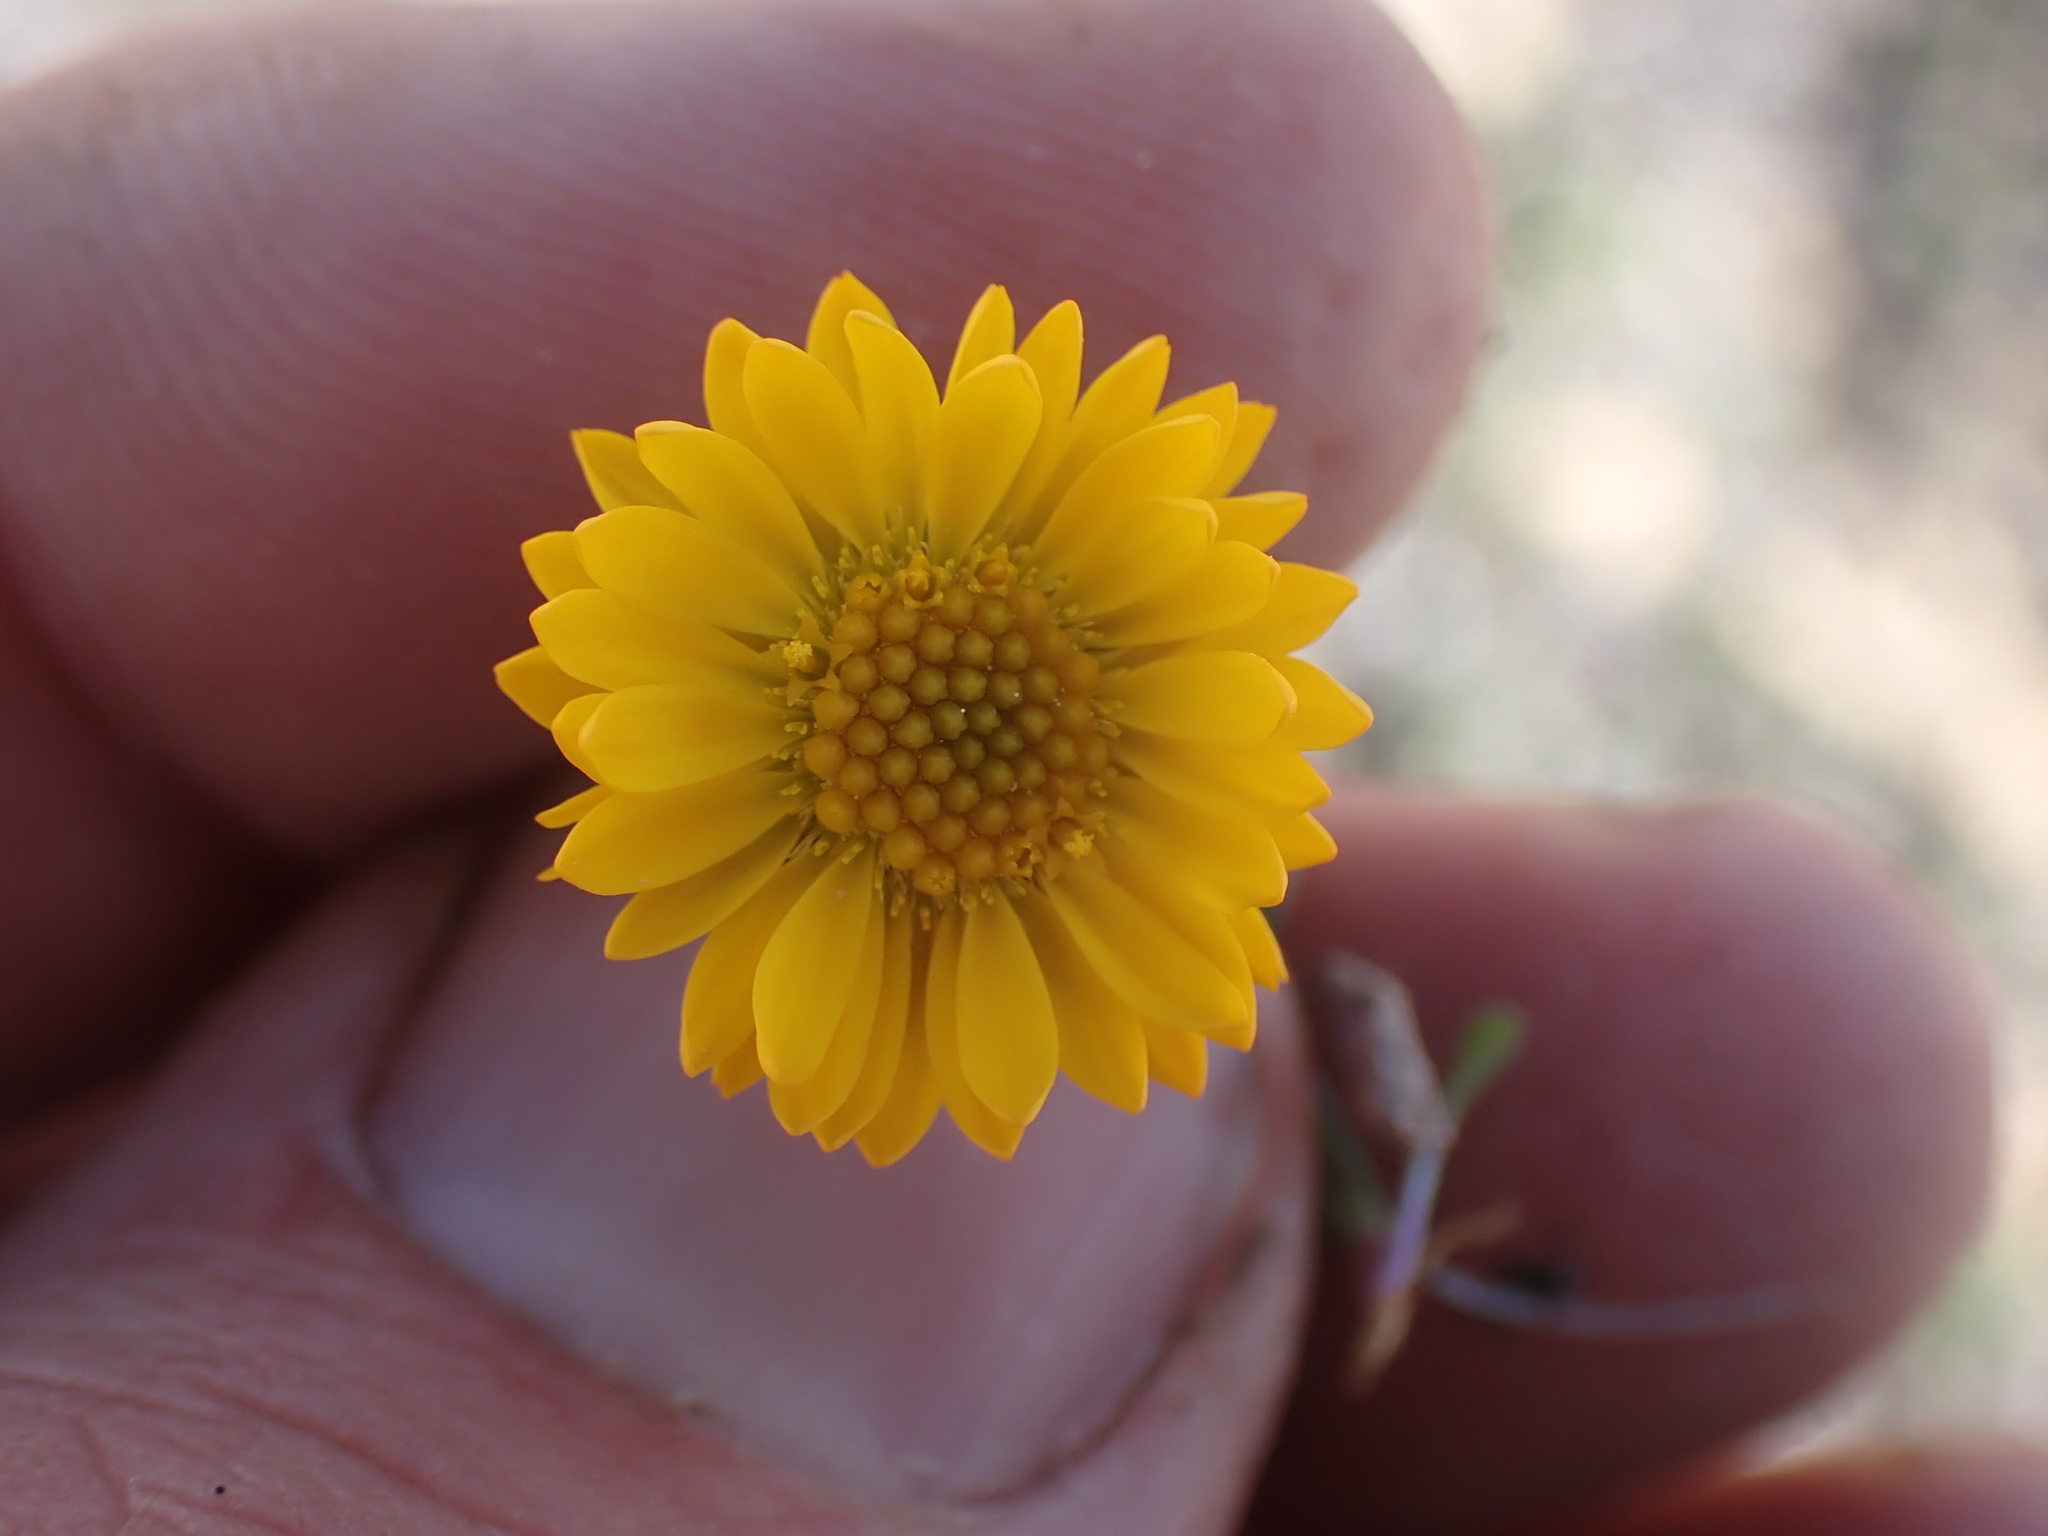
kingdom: Plantae
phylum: Tracheophyta
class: Magnoliopsida
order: Asterales
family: Asteraceae
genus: Erigeron
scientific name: Erigeron aureus
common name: Alpine yellow fleabane
